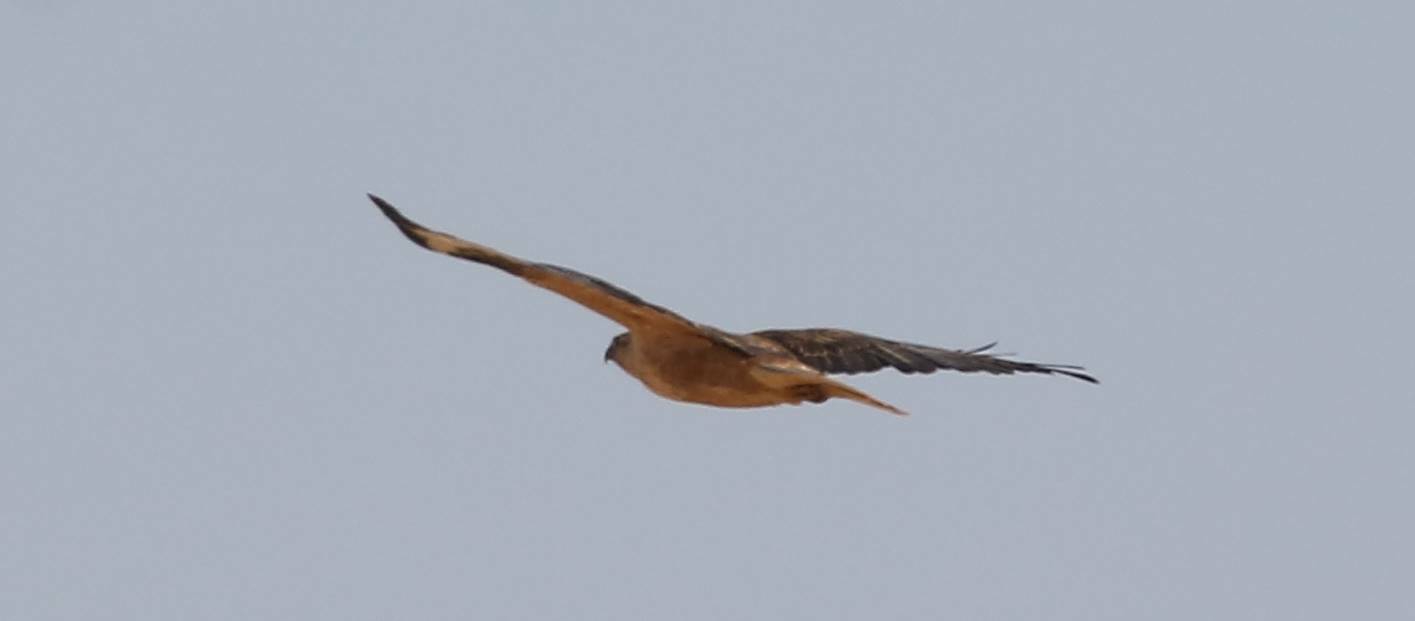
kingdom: Animalia
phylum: Chordata
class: Aves
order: Accipitriformes
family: Accipitridae
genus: Buteo
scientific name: Buteo rufinus
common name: Long-legged buzzard
